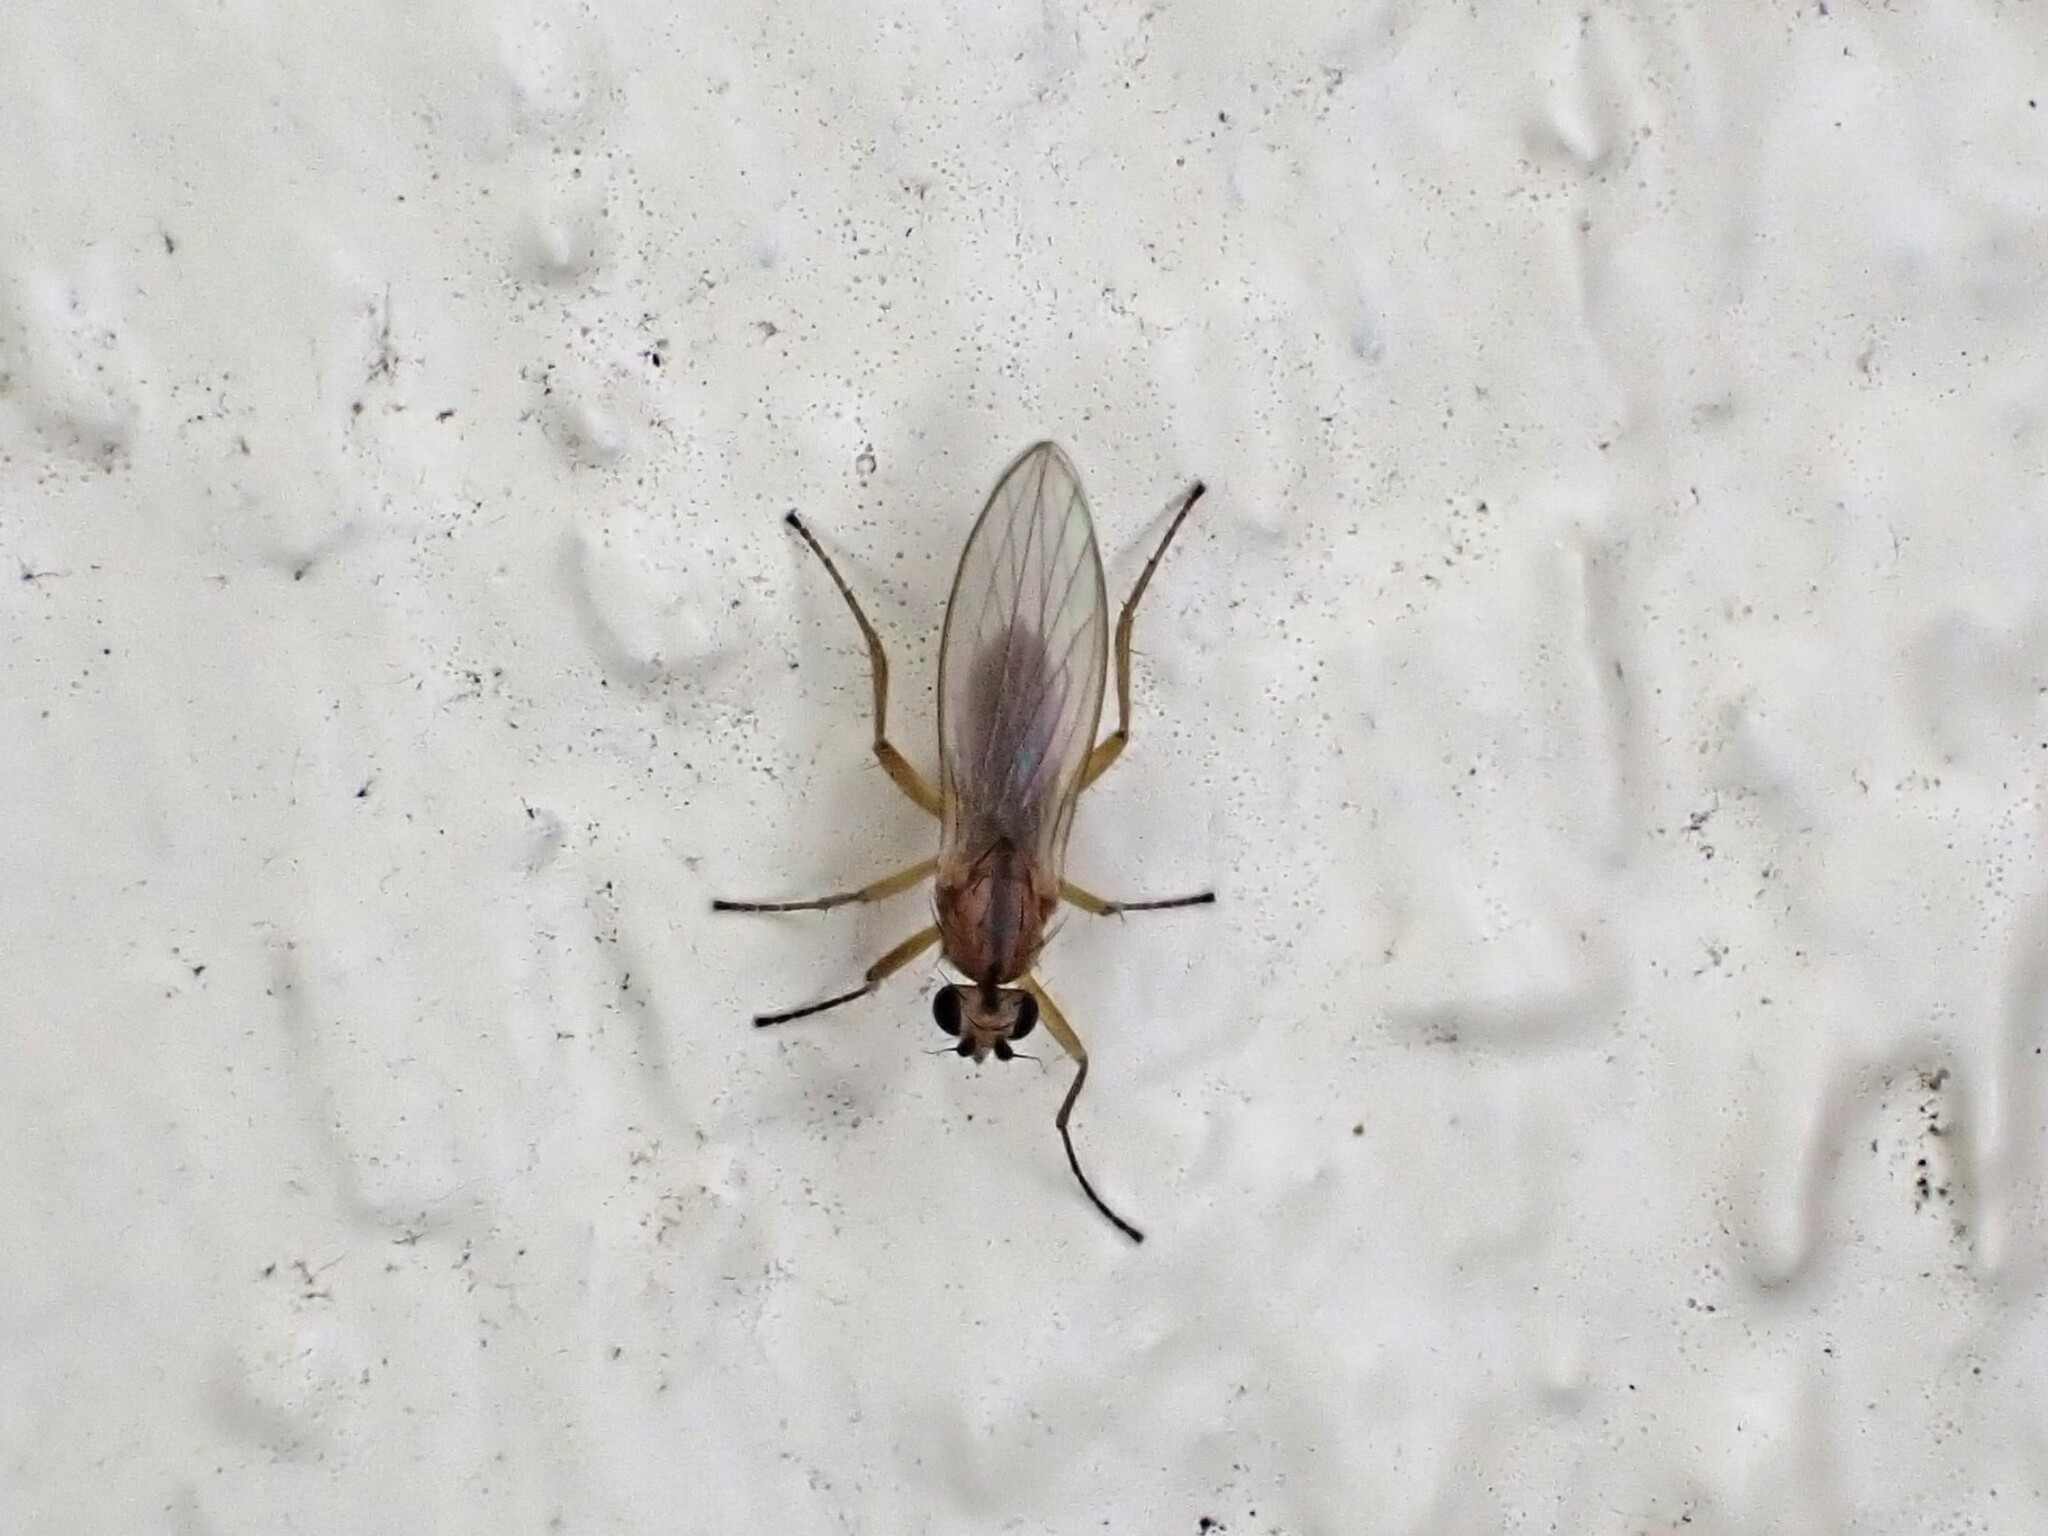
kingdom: Animalia
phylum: Arthropoda
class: Insecta
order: Diptera
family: Lonchopteridae
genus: Lonchoptera
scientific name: Lonchoptera bifurcata
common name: Spear-winged fly
